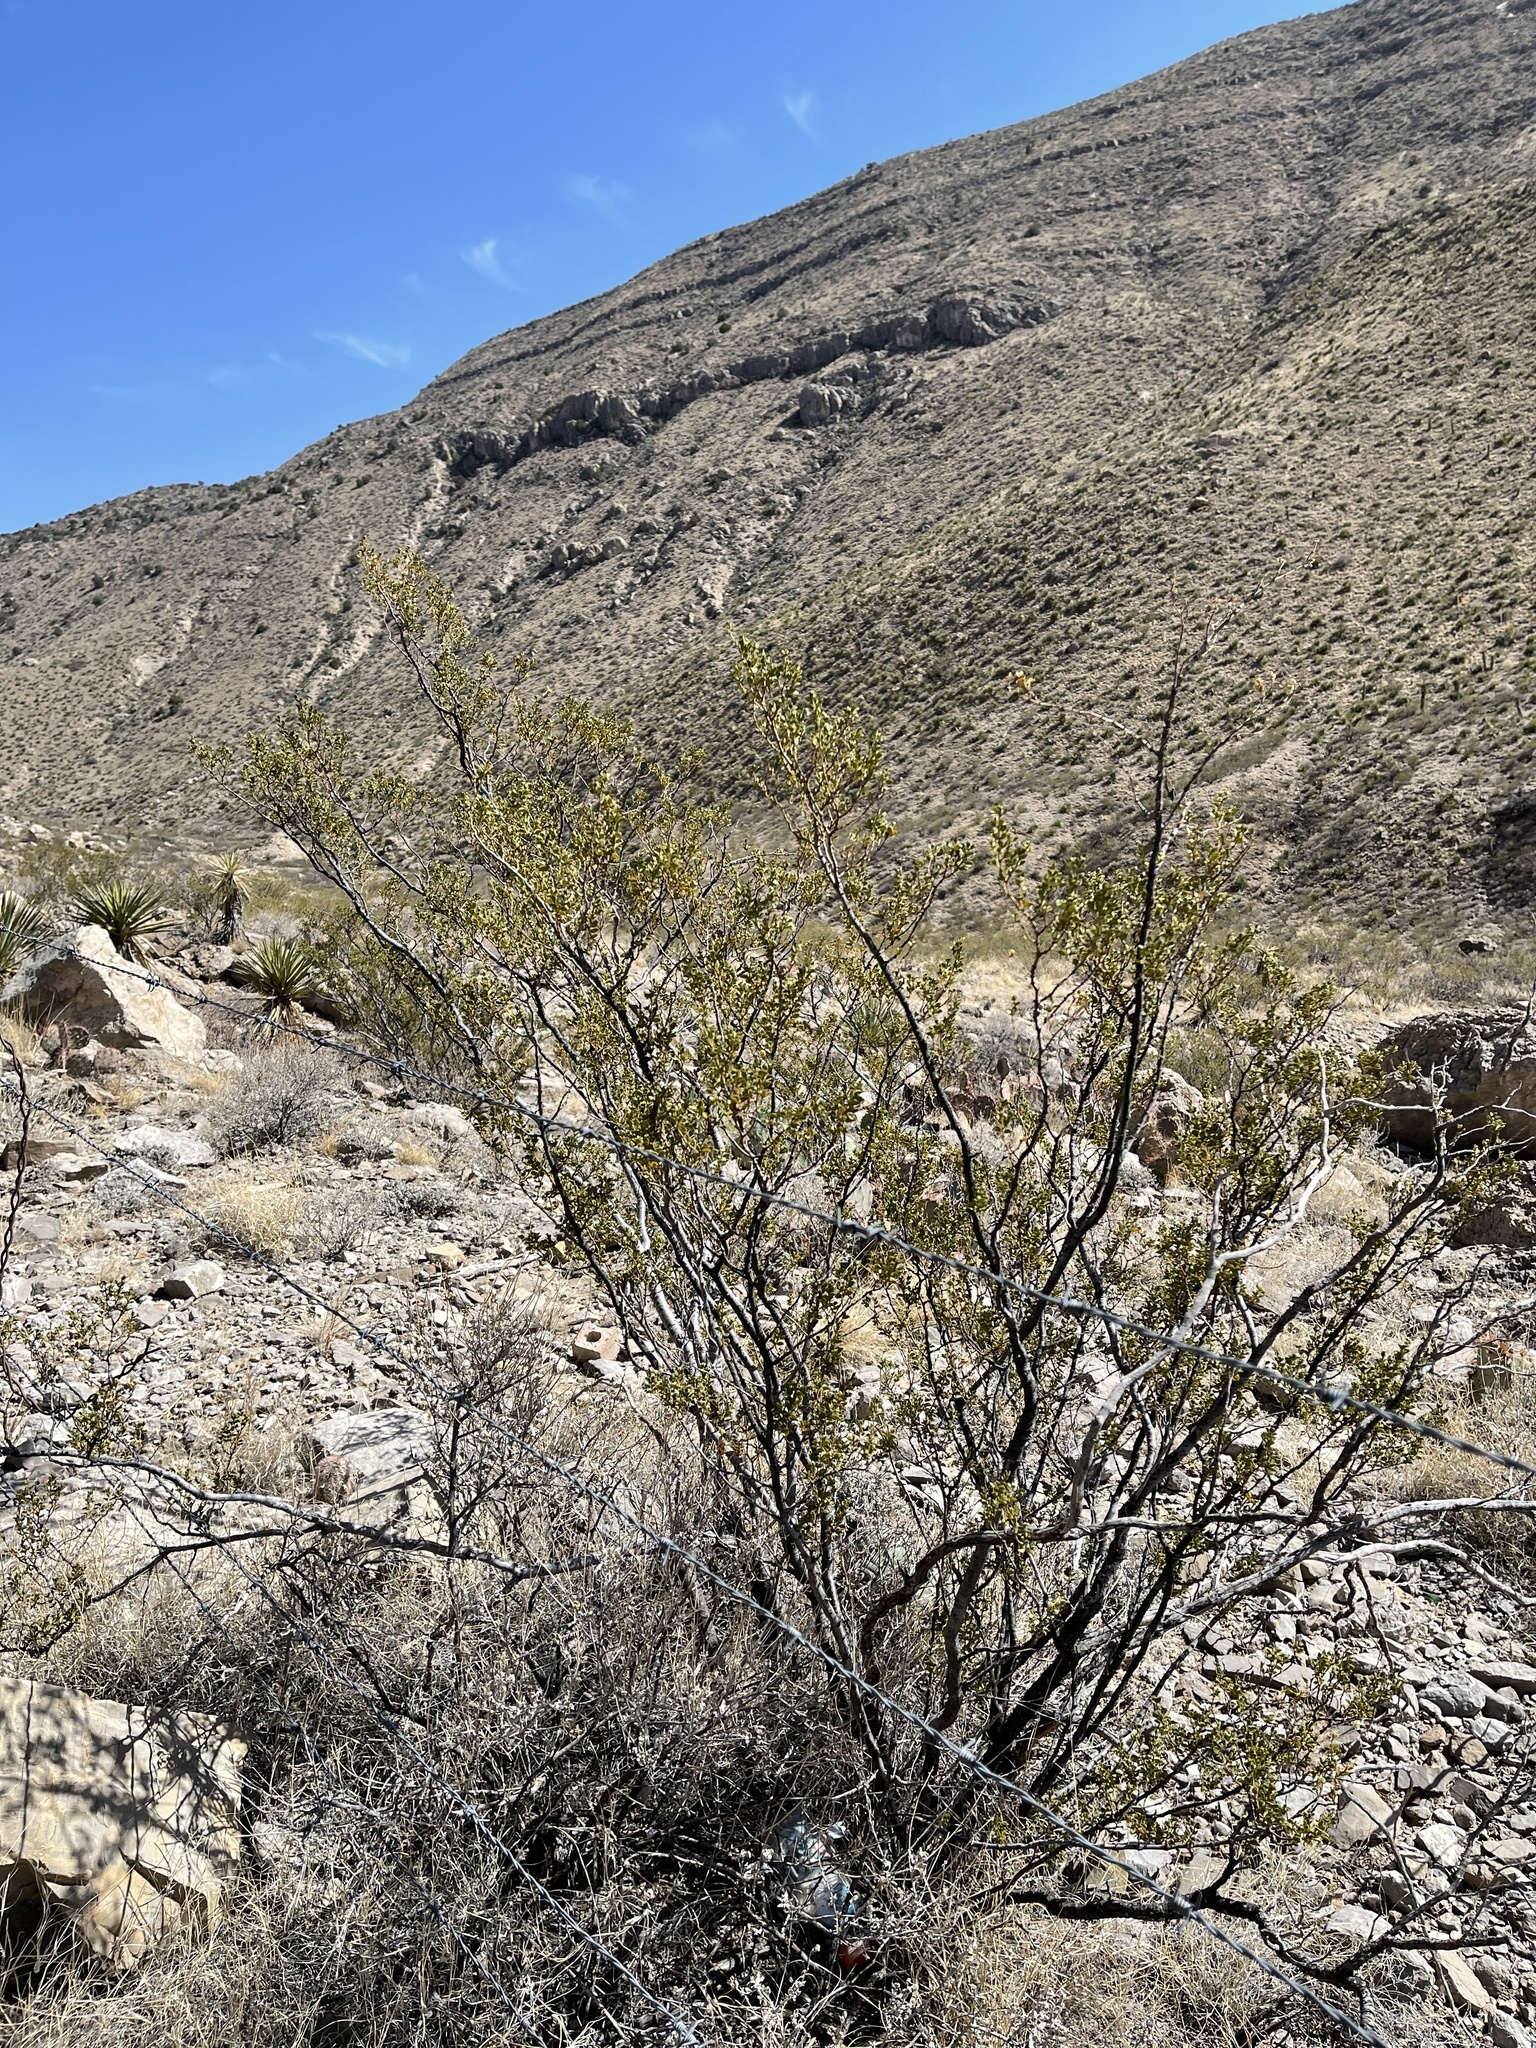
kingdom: Plantae
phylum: Tracheophyta
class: Magnoliopsida
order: Zygophyllales
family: Zygophyllaceae
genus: Larrea
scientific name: Larrea tridentata
